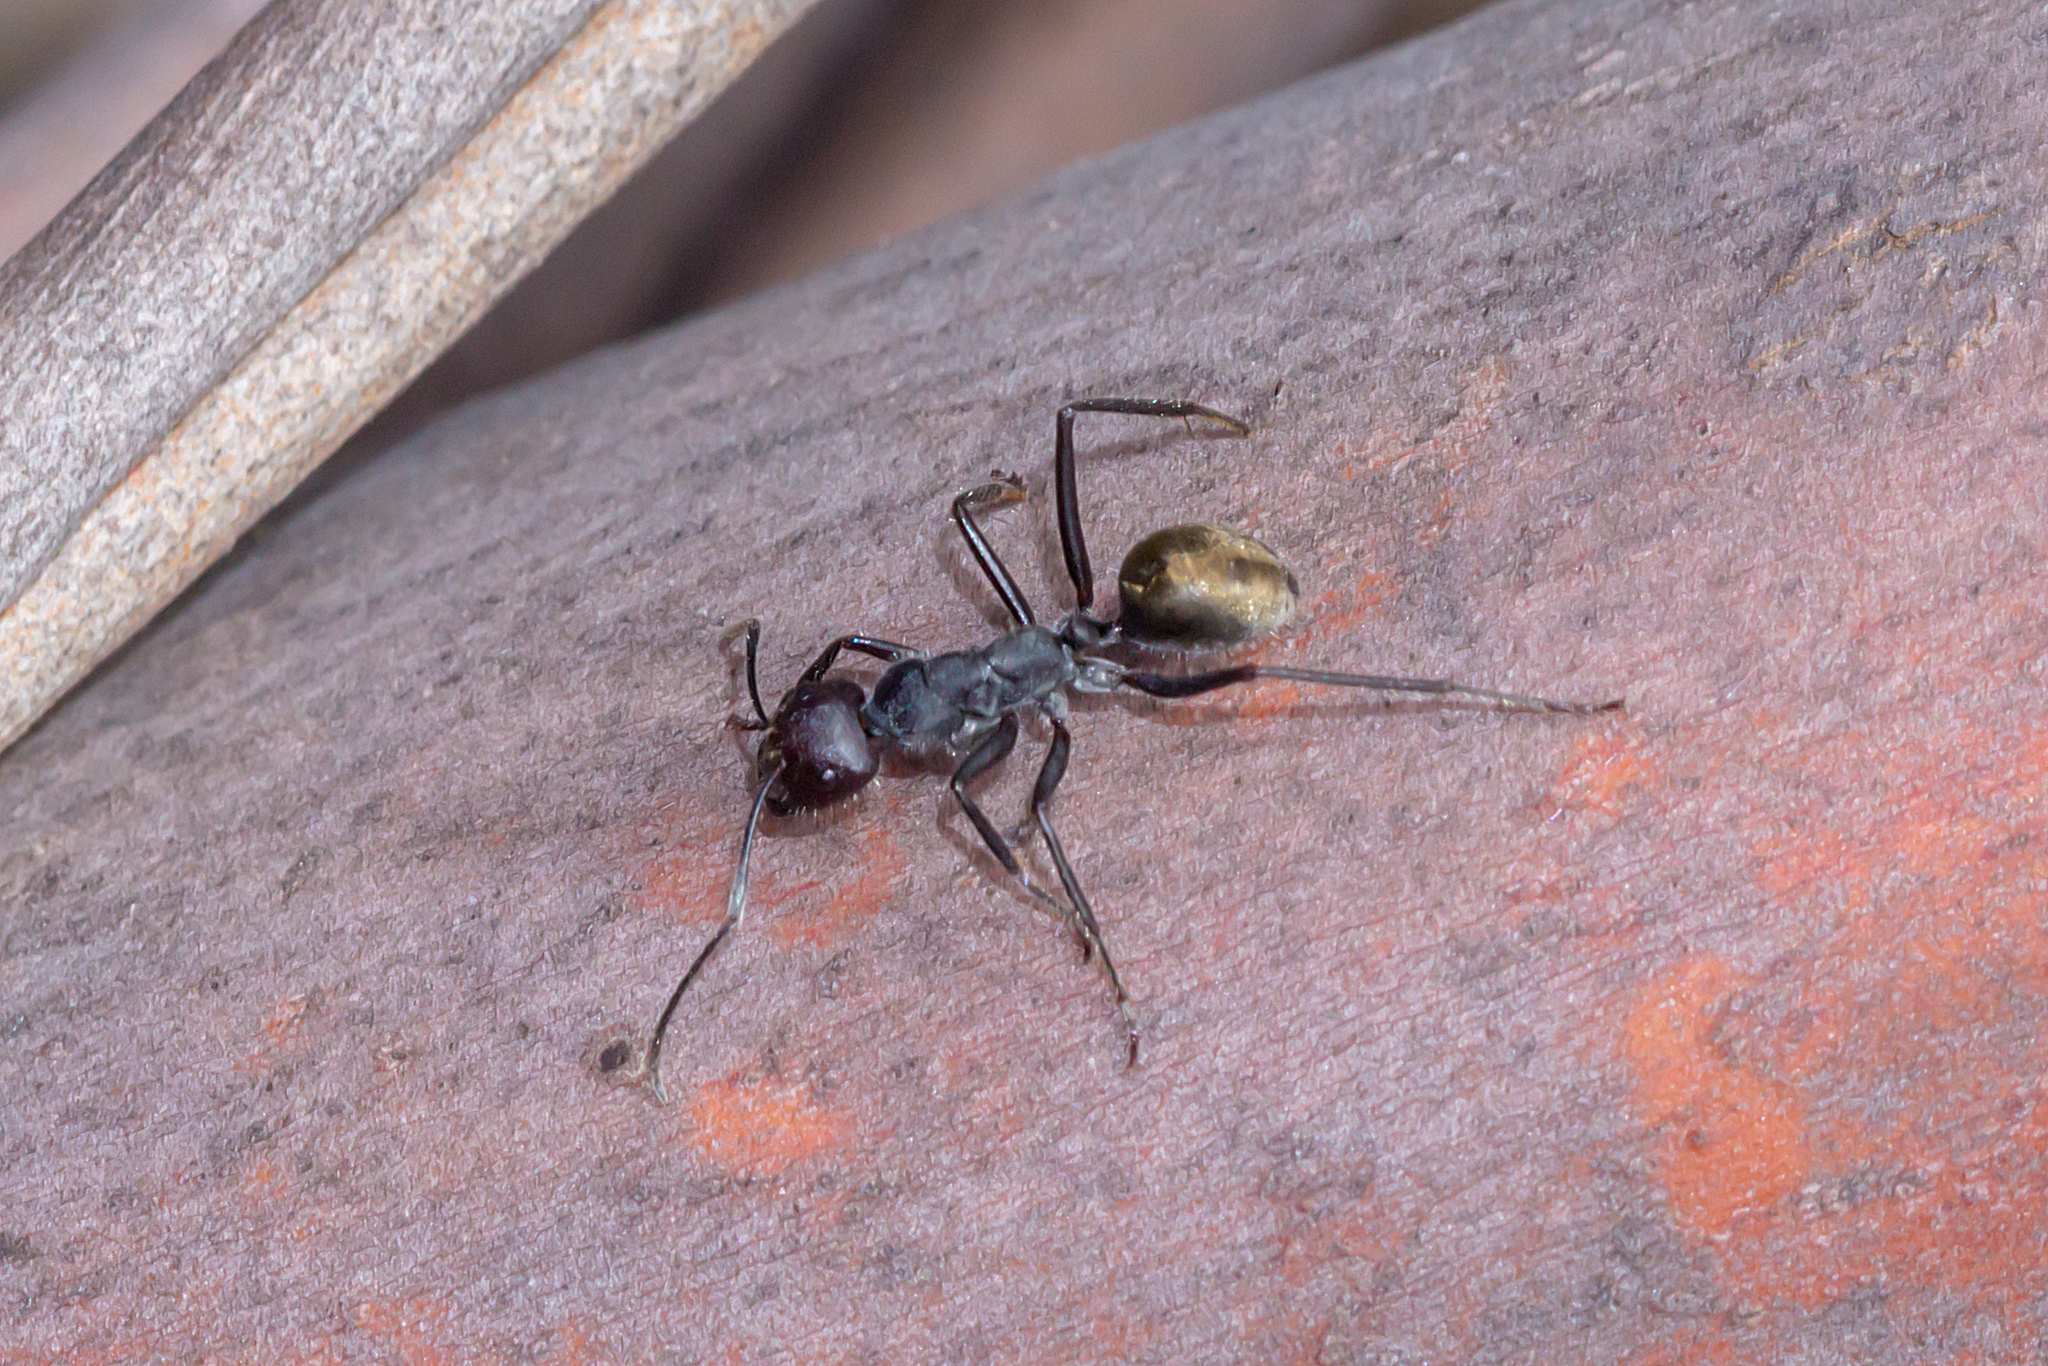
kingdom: Animalia
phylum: Arthropoda
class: Insecta
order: Hymenoptera
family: Formicidae
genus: Camponotus
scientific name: Camponotus suffusus
